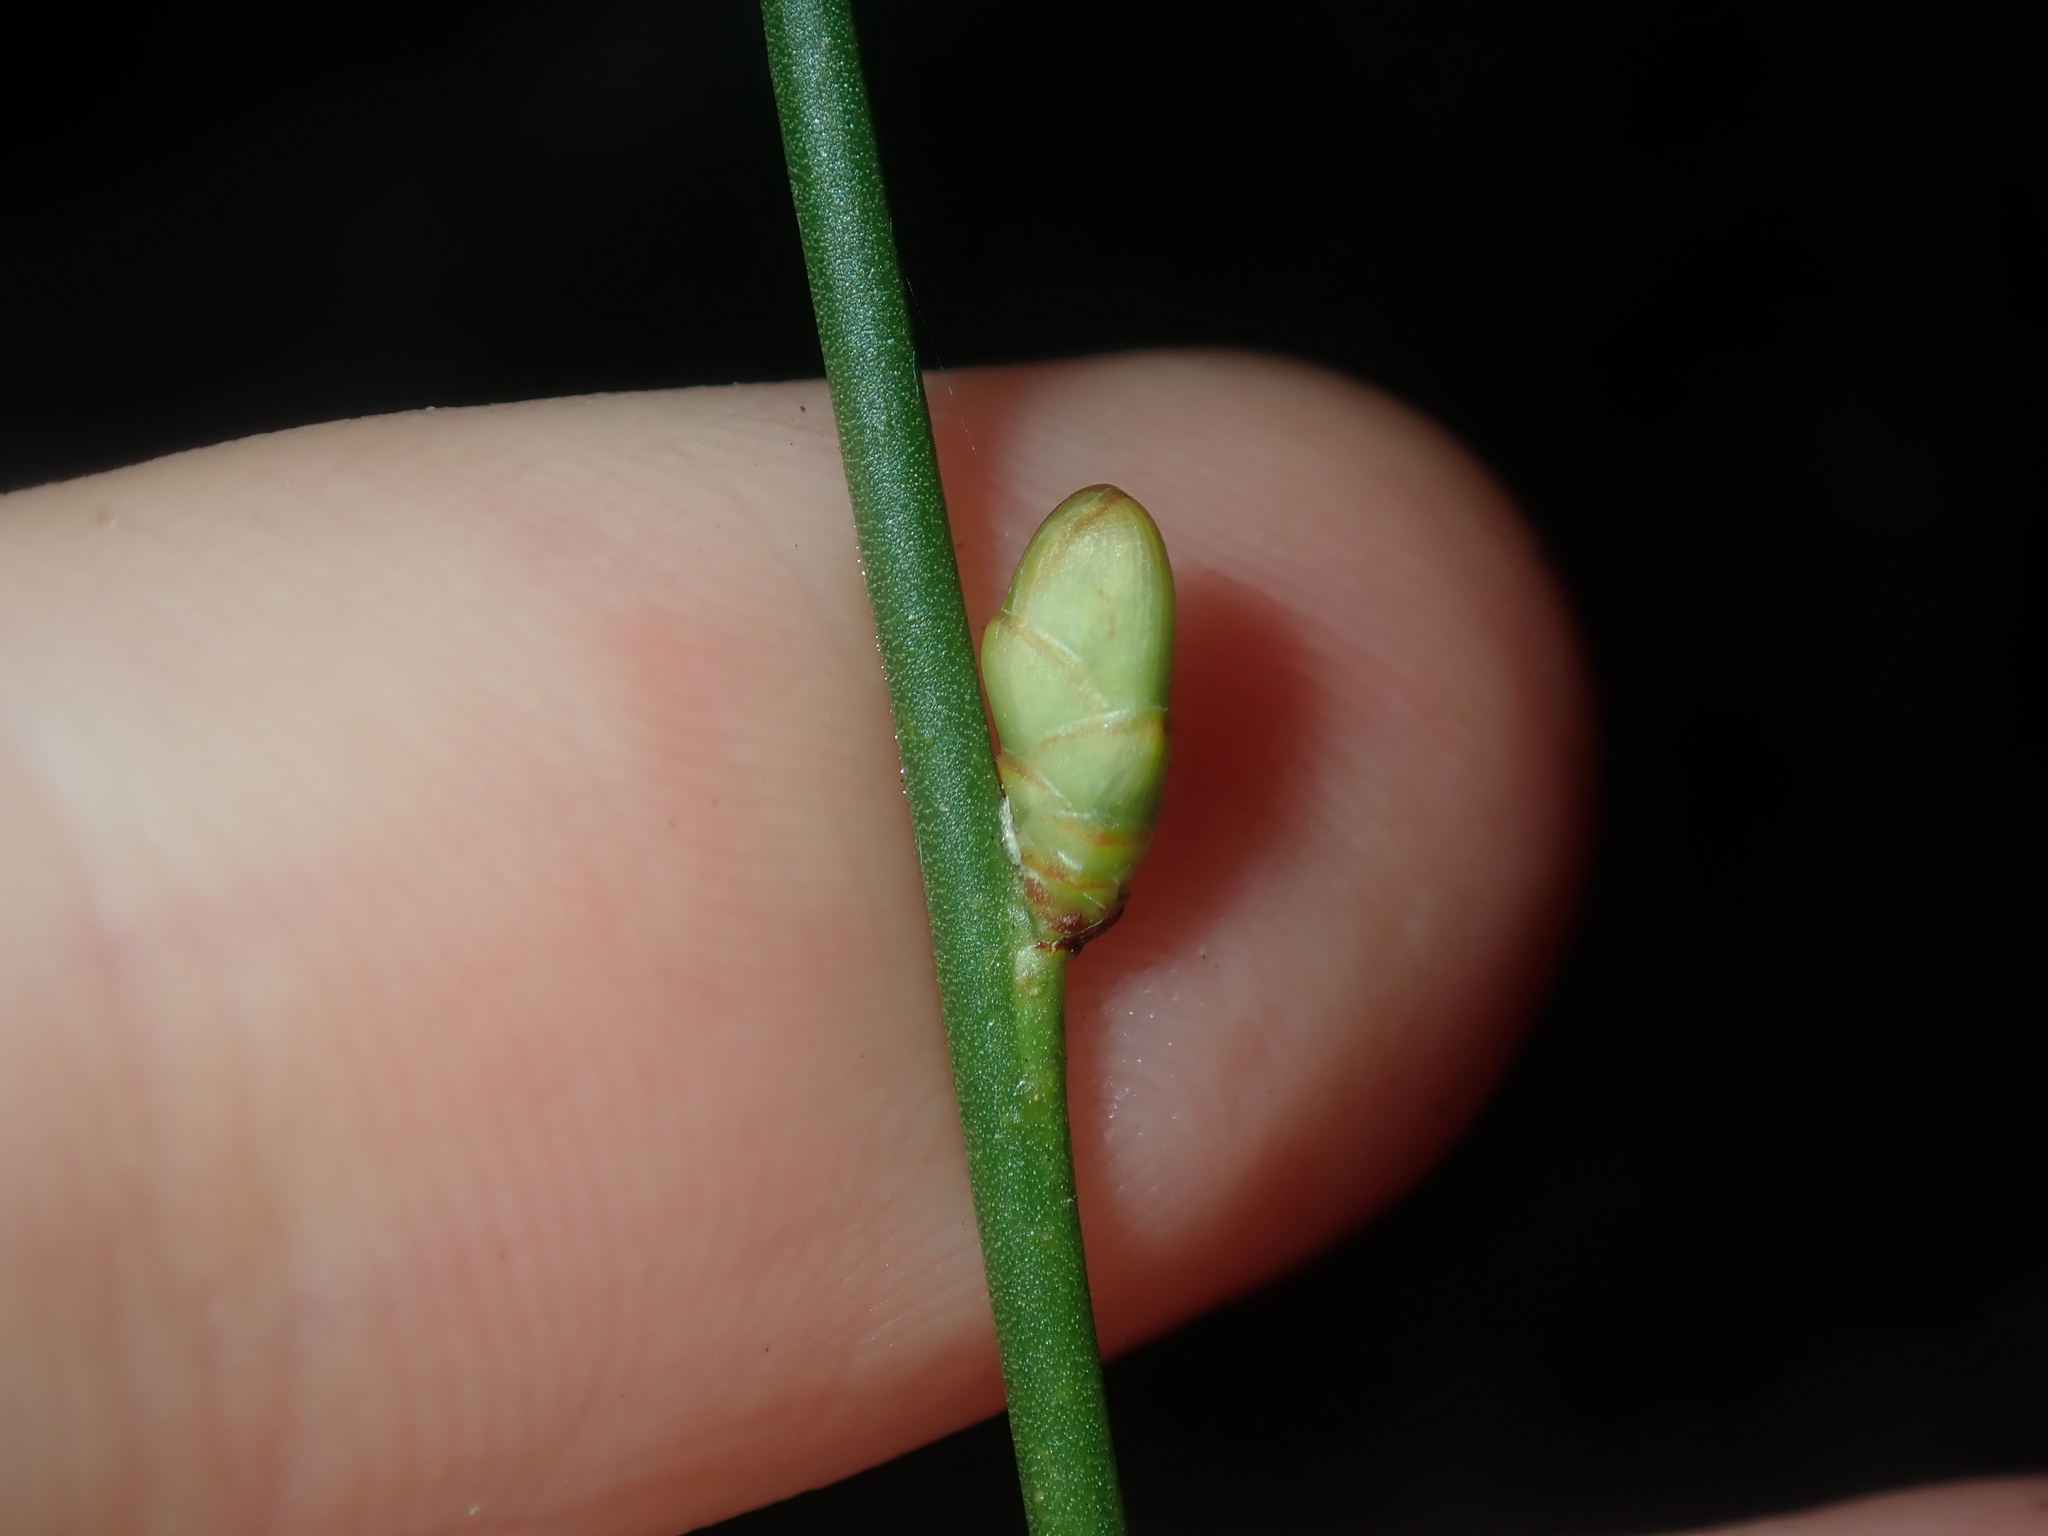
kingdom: Plantae
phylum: Tracheophyta
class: Magnoliopsida
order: Fabales
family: Fabaceae
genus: Daviesia
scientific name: Daviesia triflora
